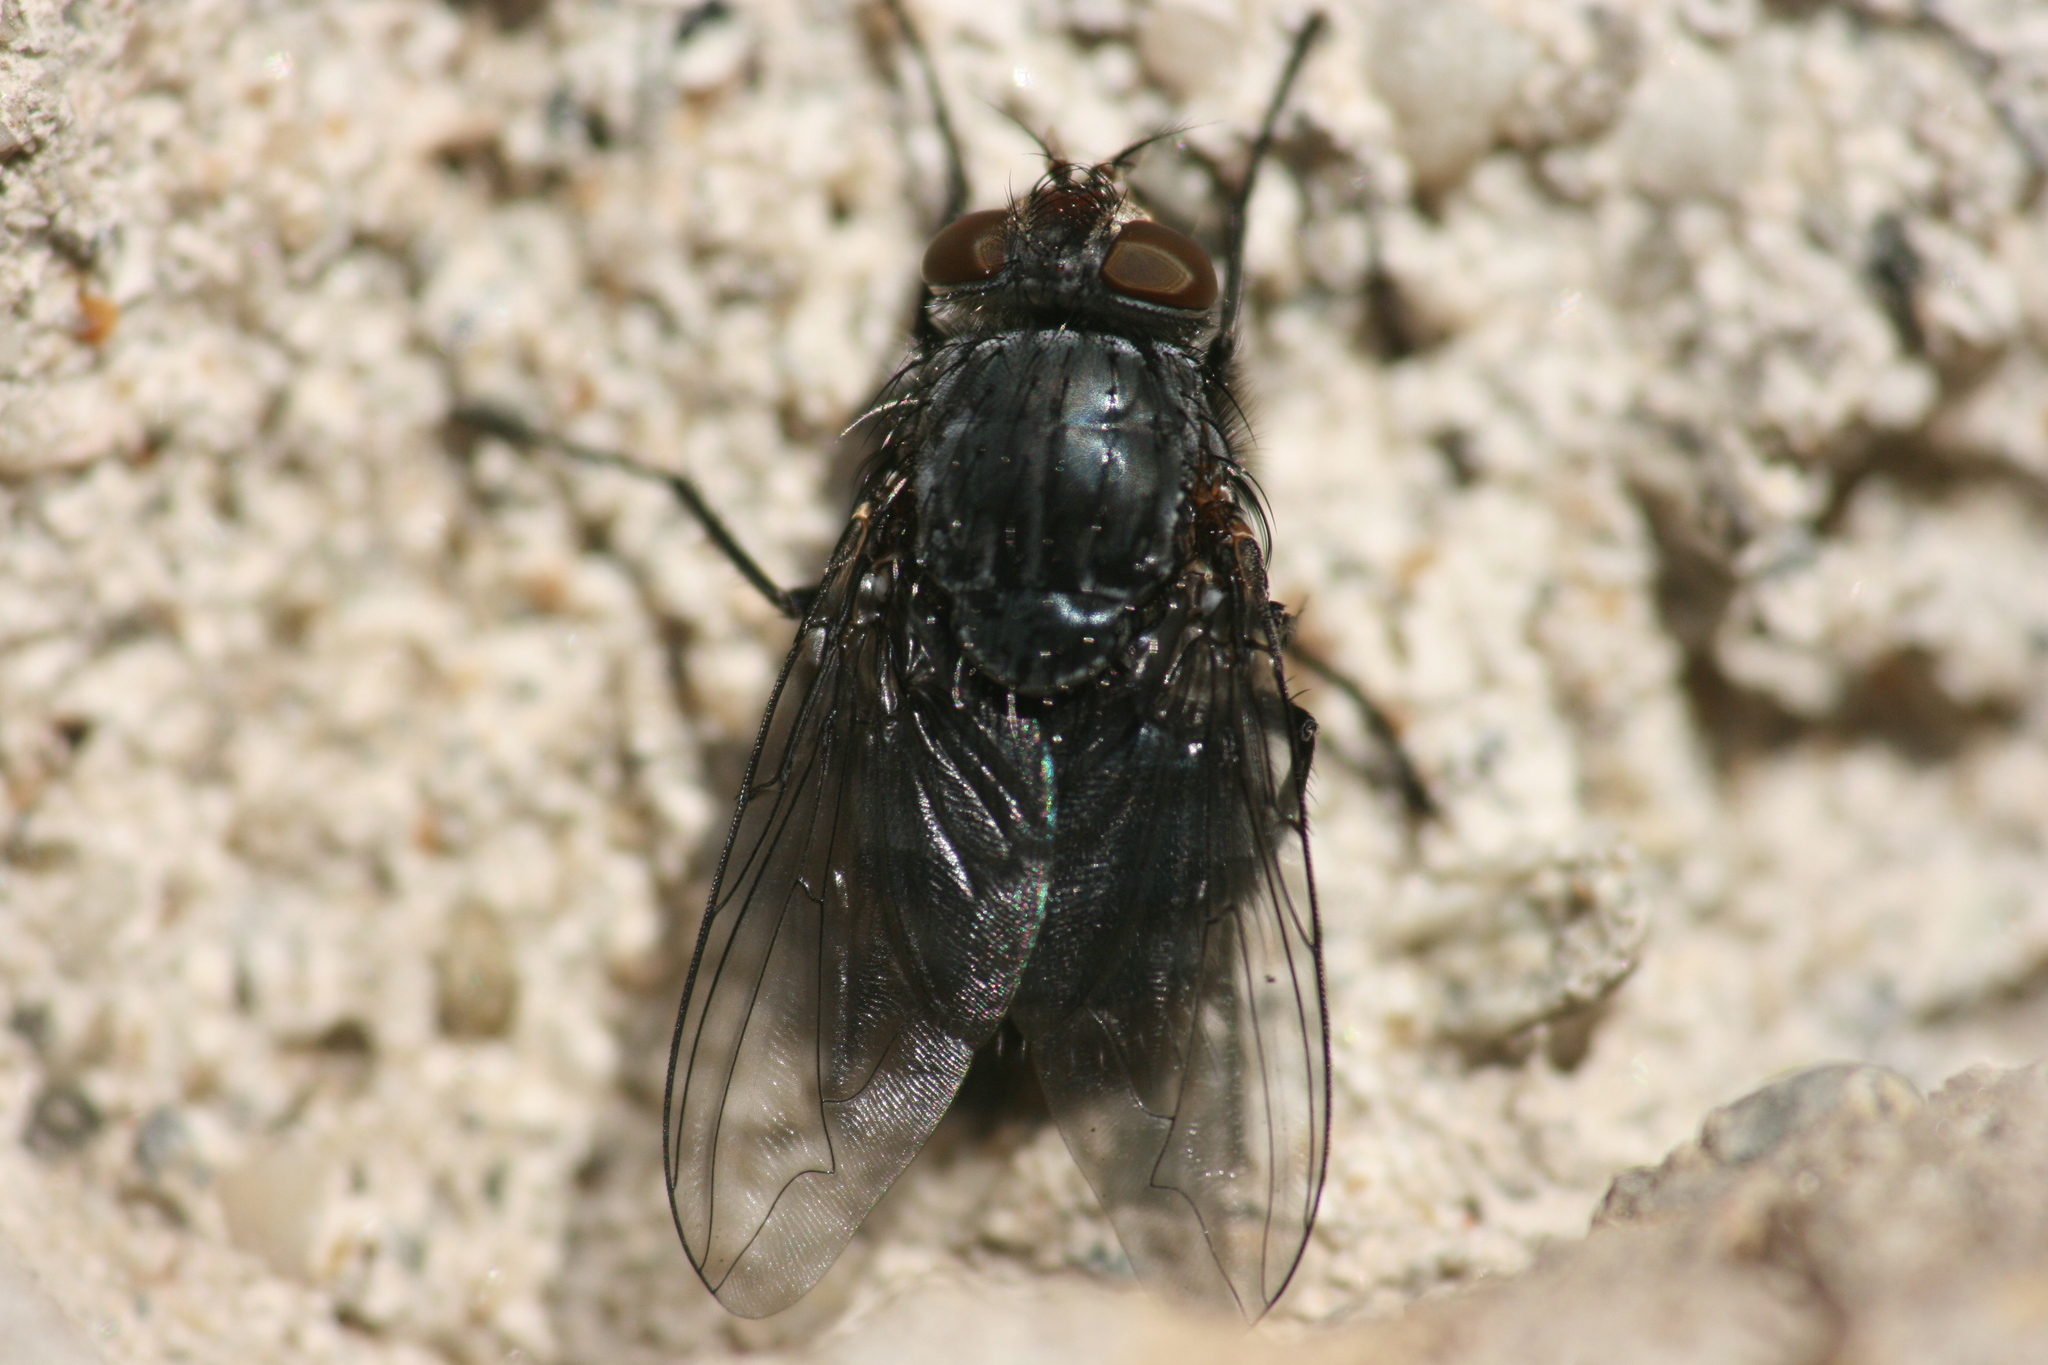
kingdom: Animalia
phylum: Arthropoda
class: Insecta
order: Diptera
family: Calliphoridae
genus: Calliphora
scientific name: Calliphora vicina
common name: Common blow flie
